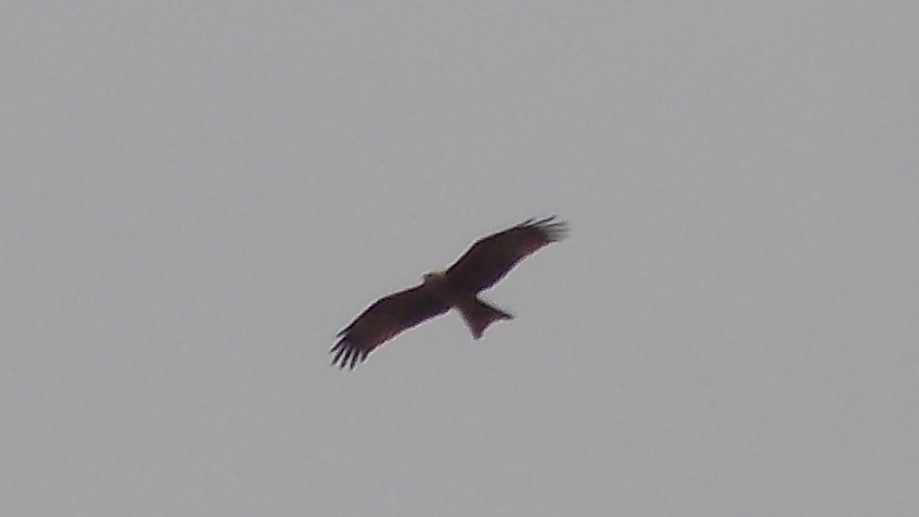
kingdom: Animalia
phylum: Chordata
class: Aves
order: Accipitriformes
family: Accipitridae
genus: Milvus
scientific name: Milvus migrans
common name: Black kite
